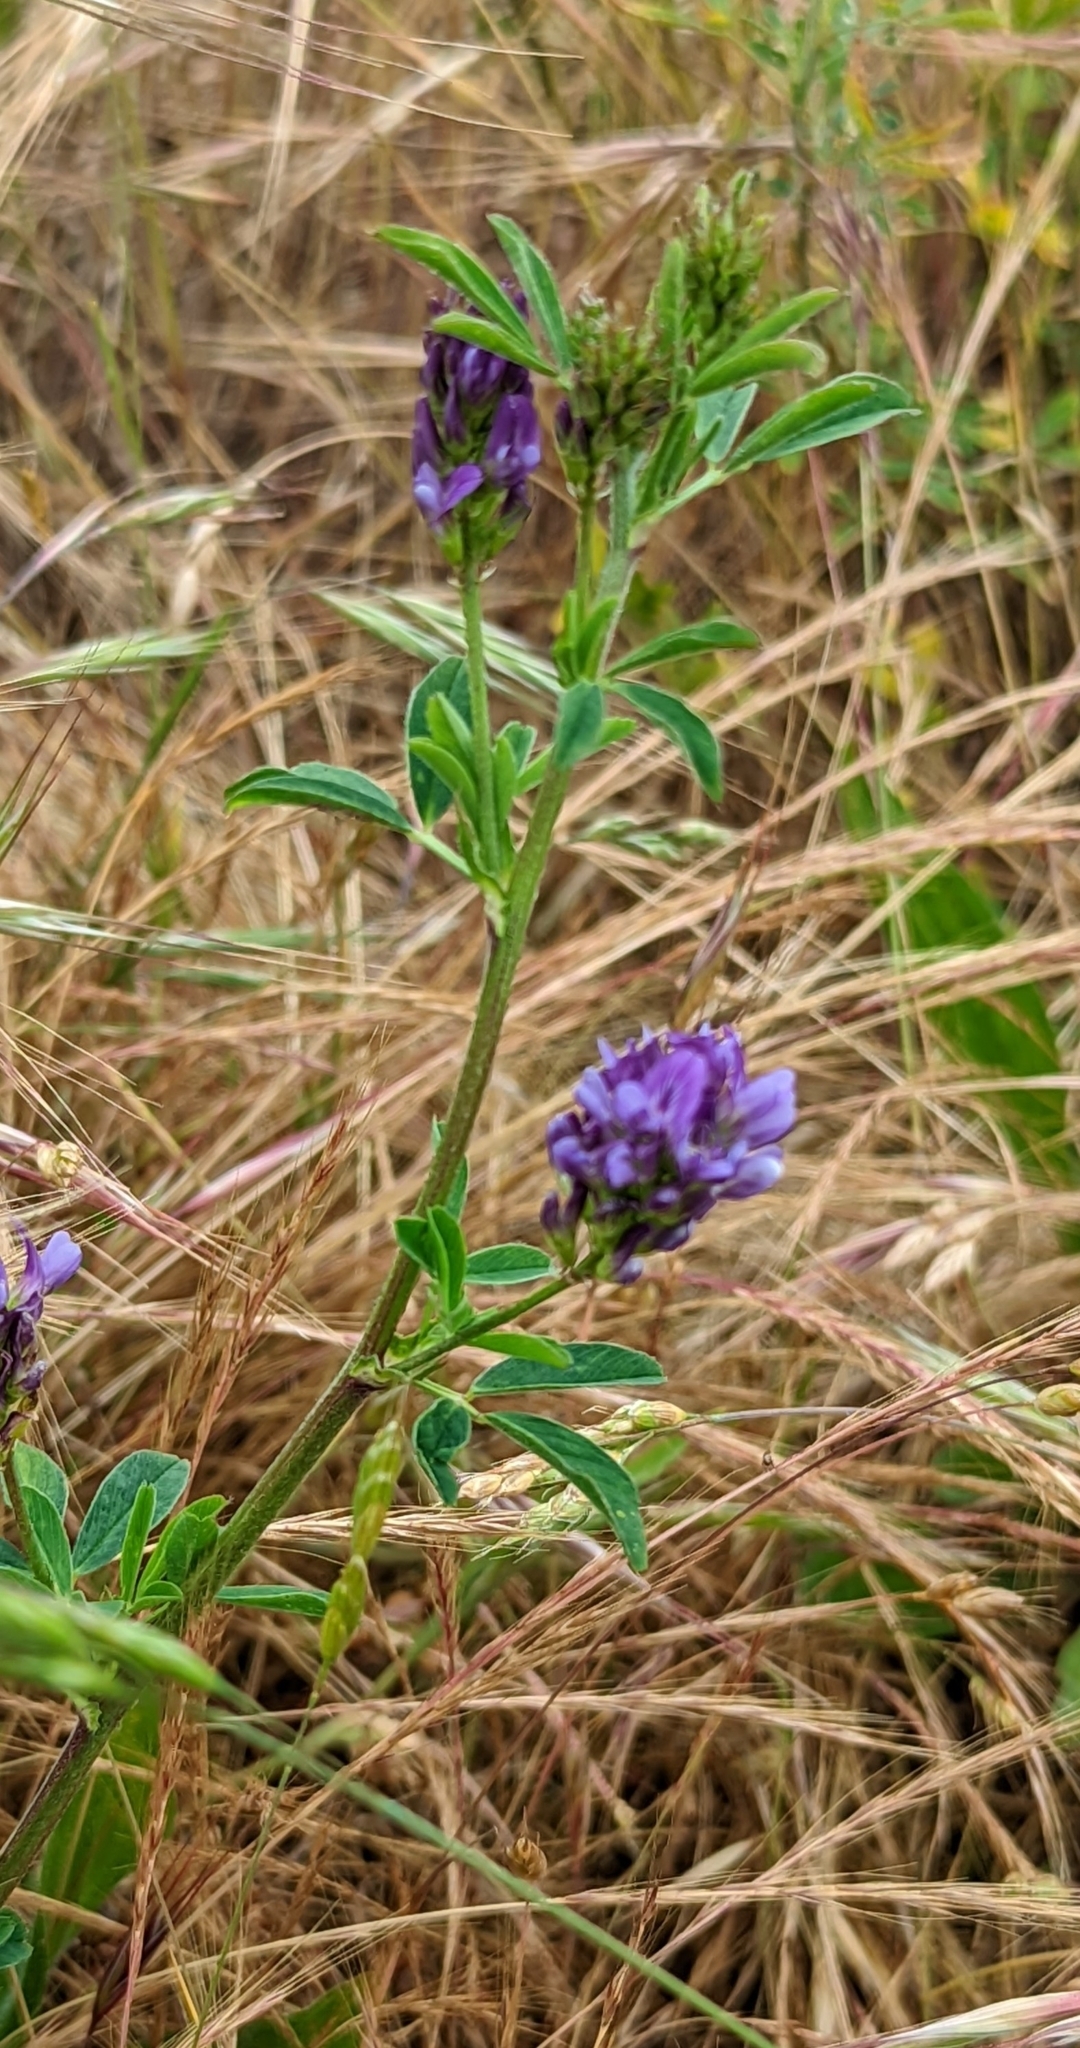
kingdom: Plantae
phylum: Tracheophyta
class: Magnoliopsida
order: Fabales
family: Fabaceae
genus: Medicago
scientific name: Medicago sativa
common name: Alfalfa
